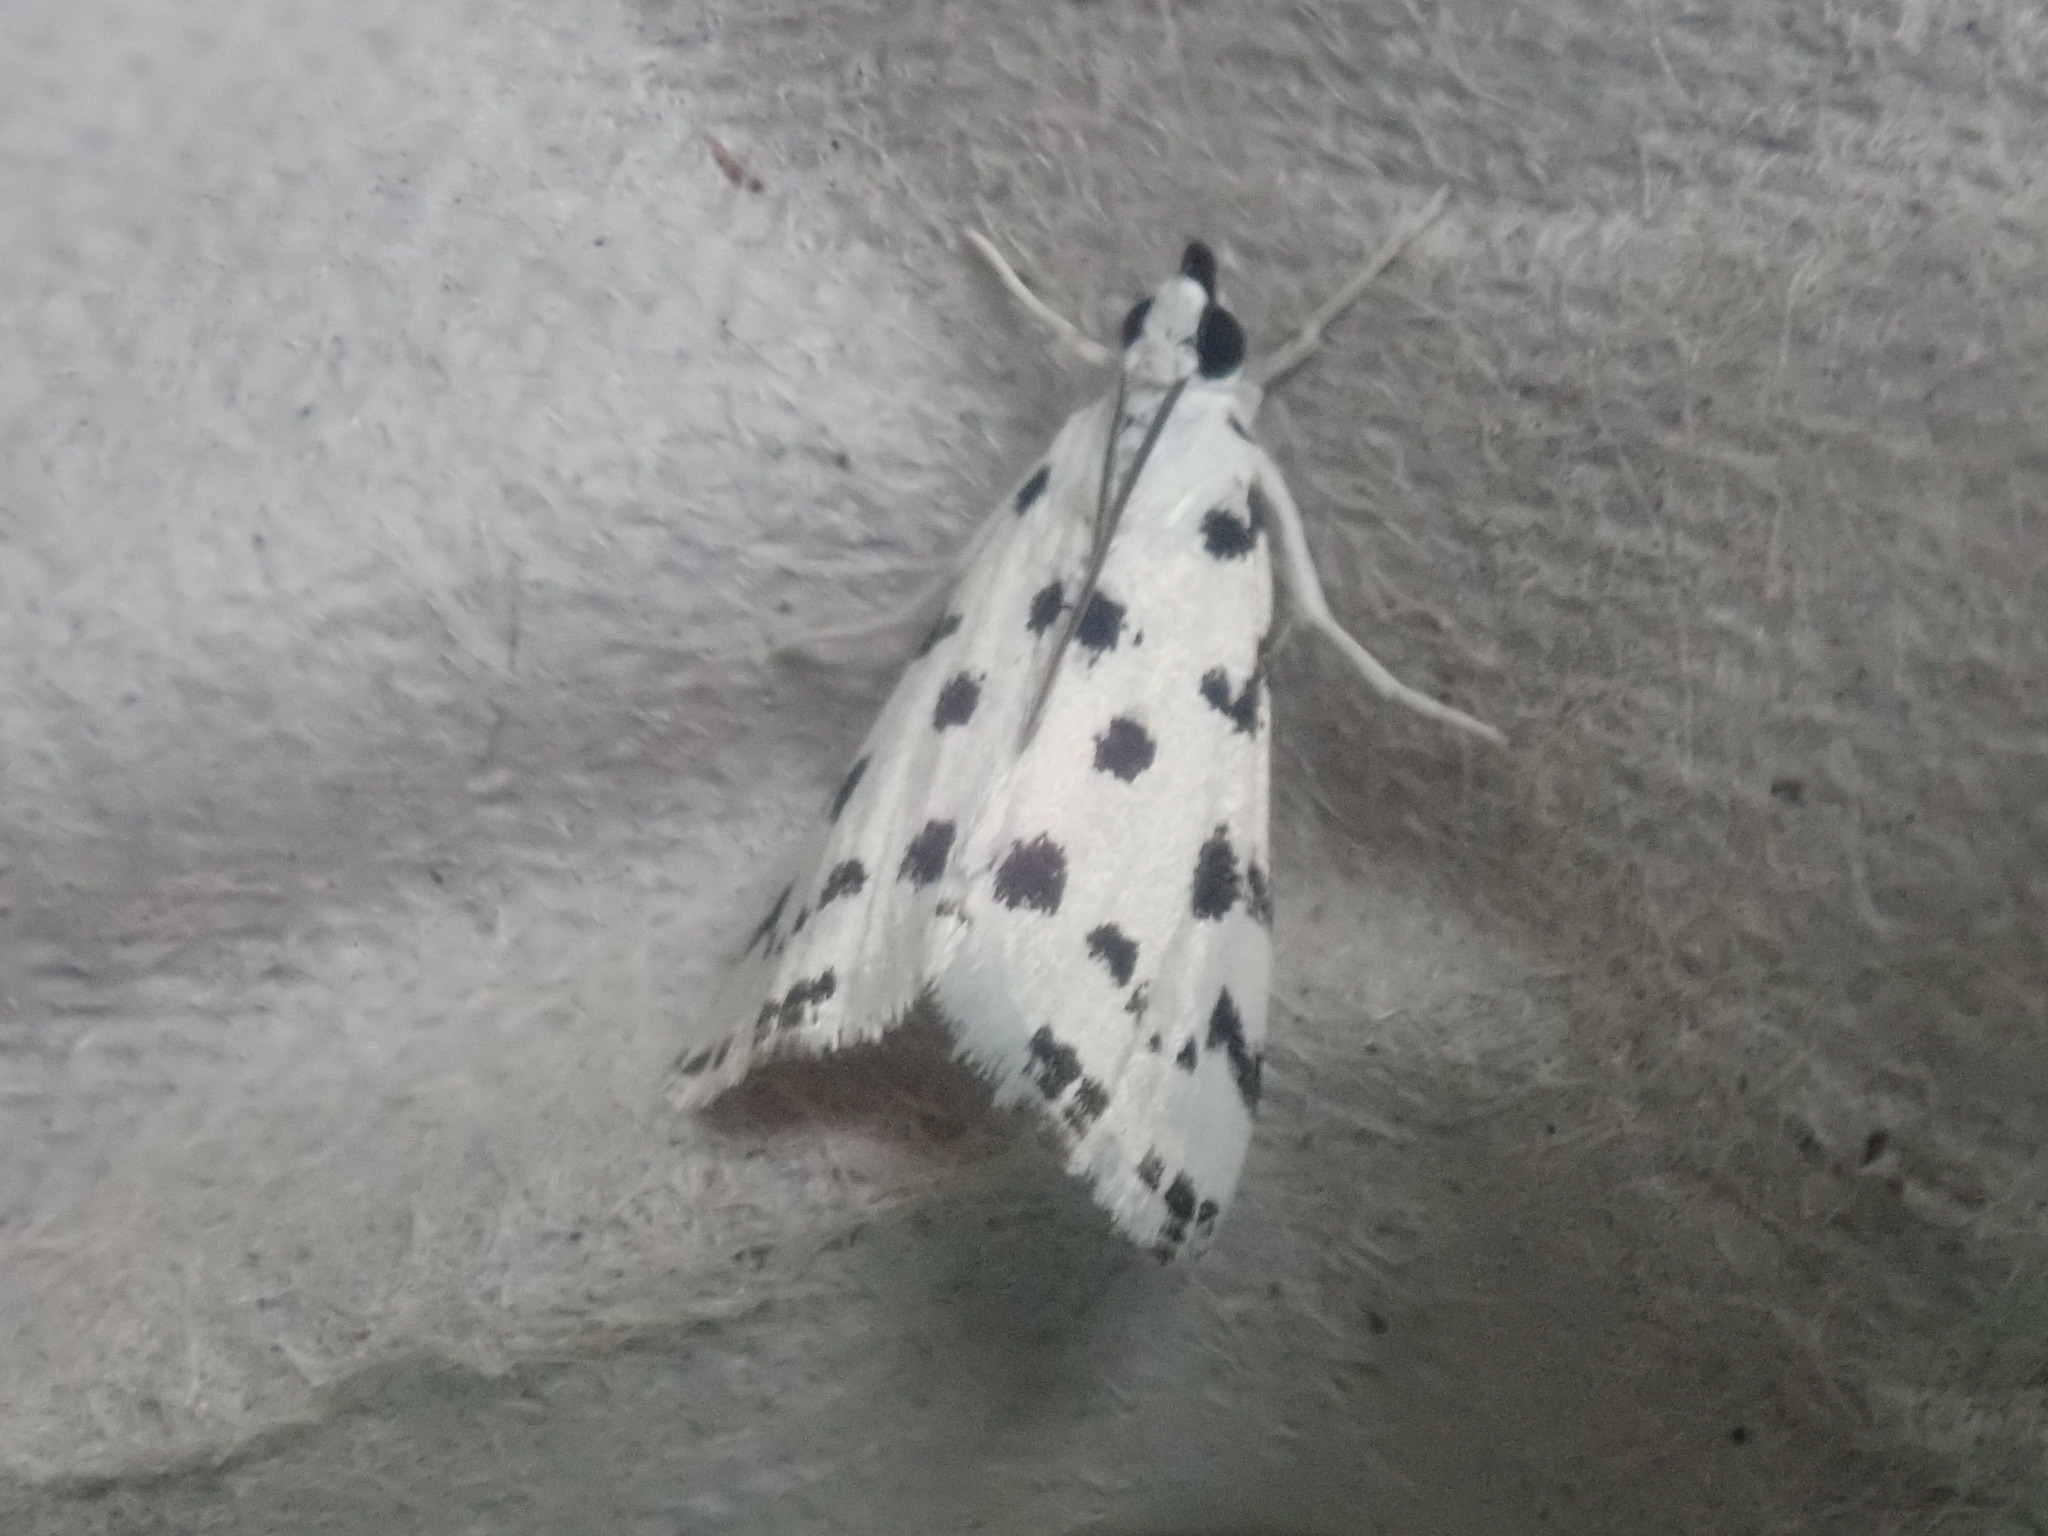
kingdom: Animalia
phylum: Arthropoda
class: Insecta
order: Lepidoptera
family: Crambidae
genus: Eustixia
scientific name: Eustixia pupula
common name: American cabbage pearl
